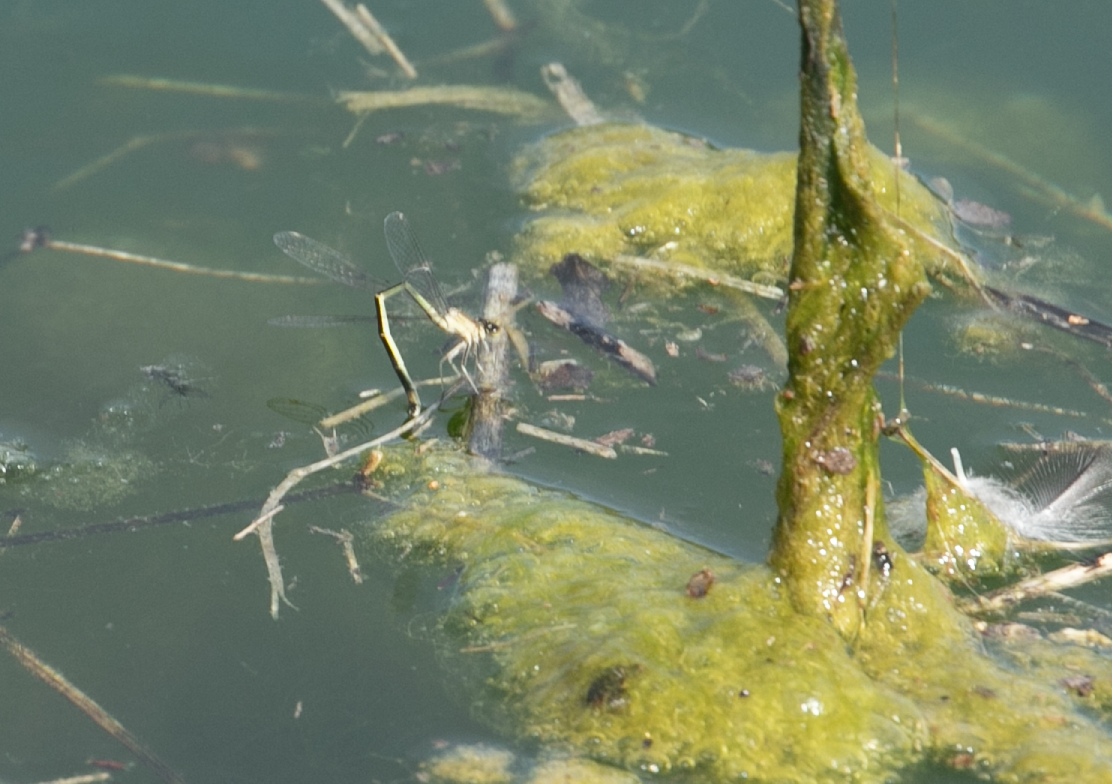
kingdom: Animalia
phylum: Arthropoda
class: Insecta
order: Odonata
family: Coenagrionidae
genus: Ischnura
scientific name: Ischnura elegans
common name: Blue-tailed damselfly
